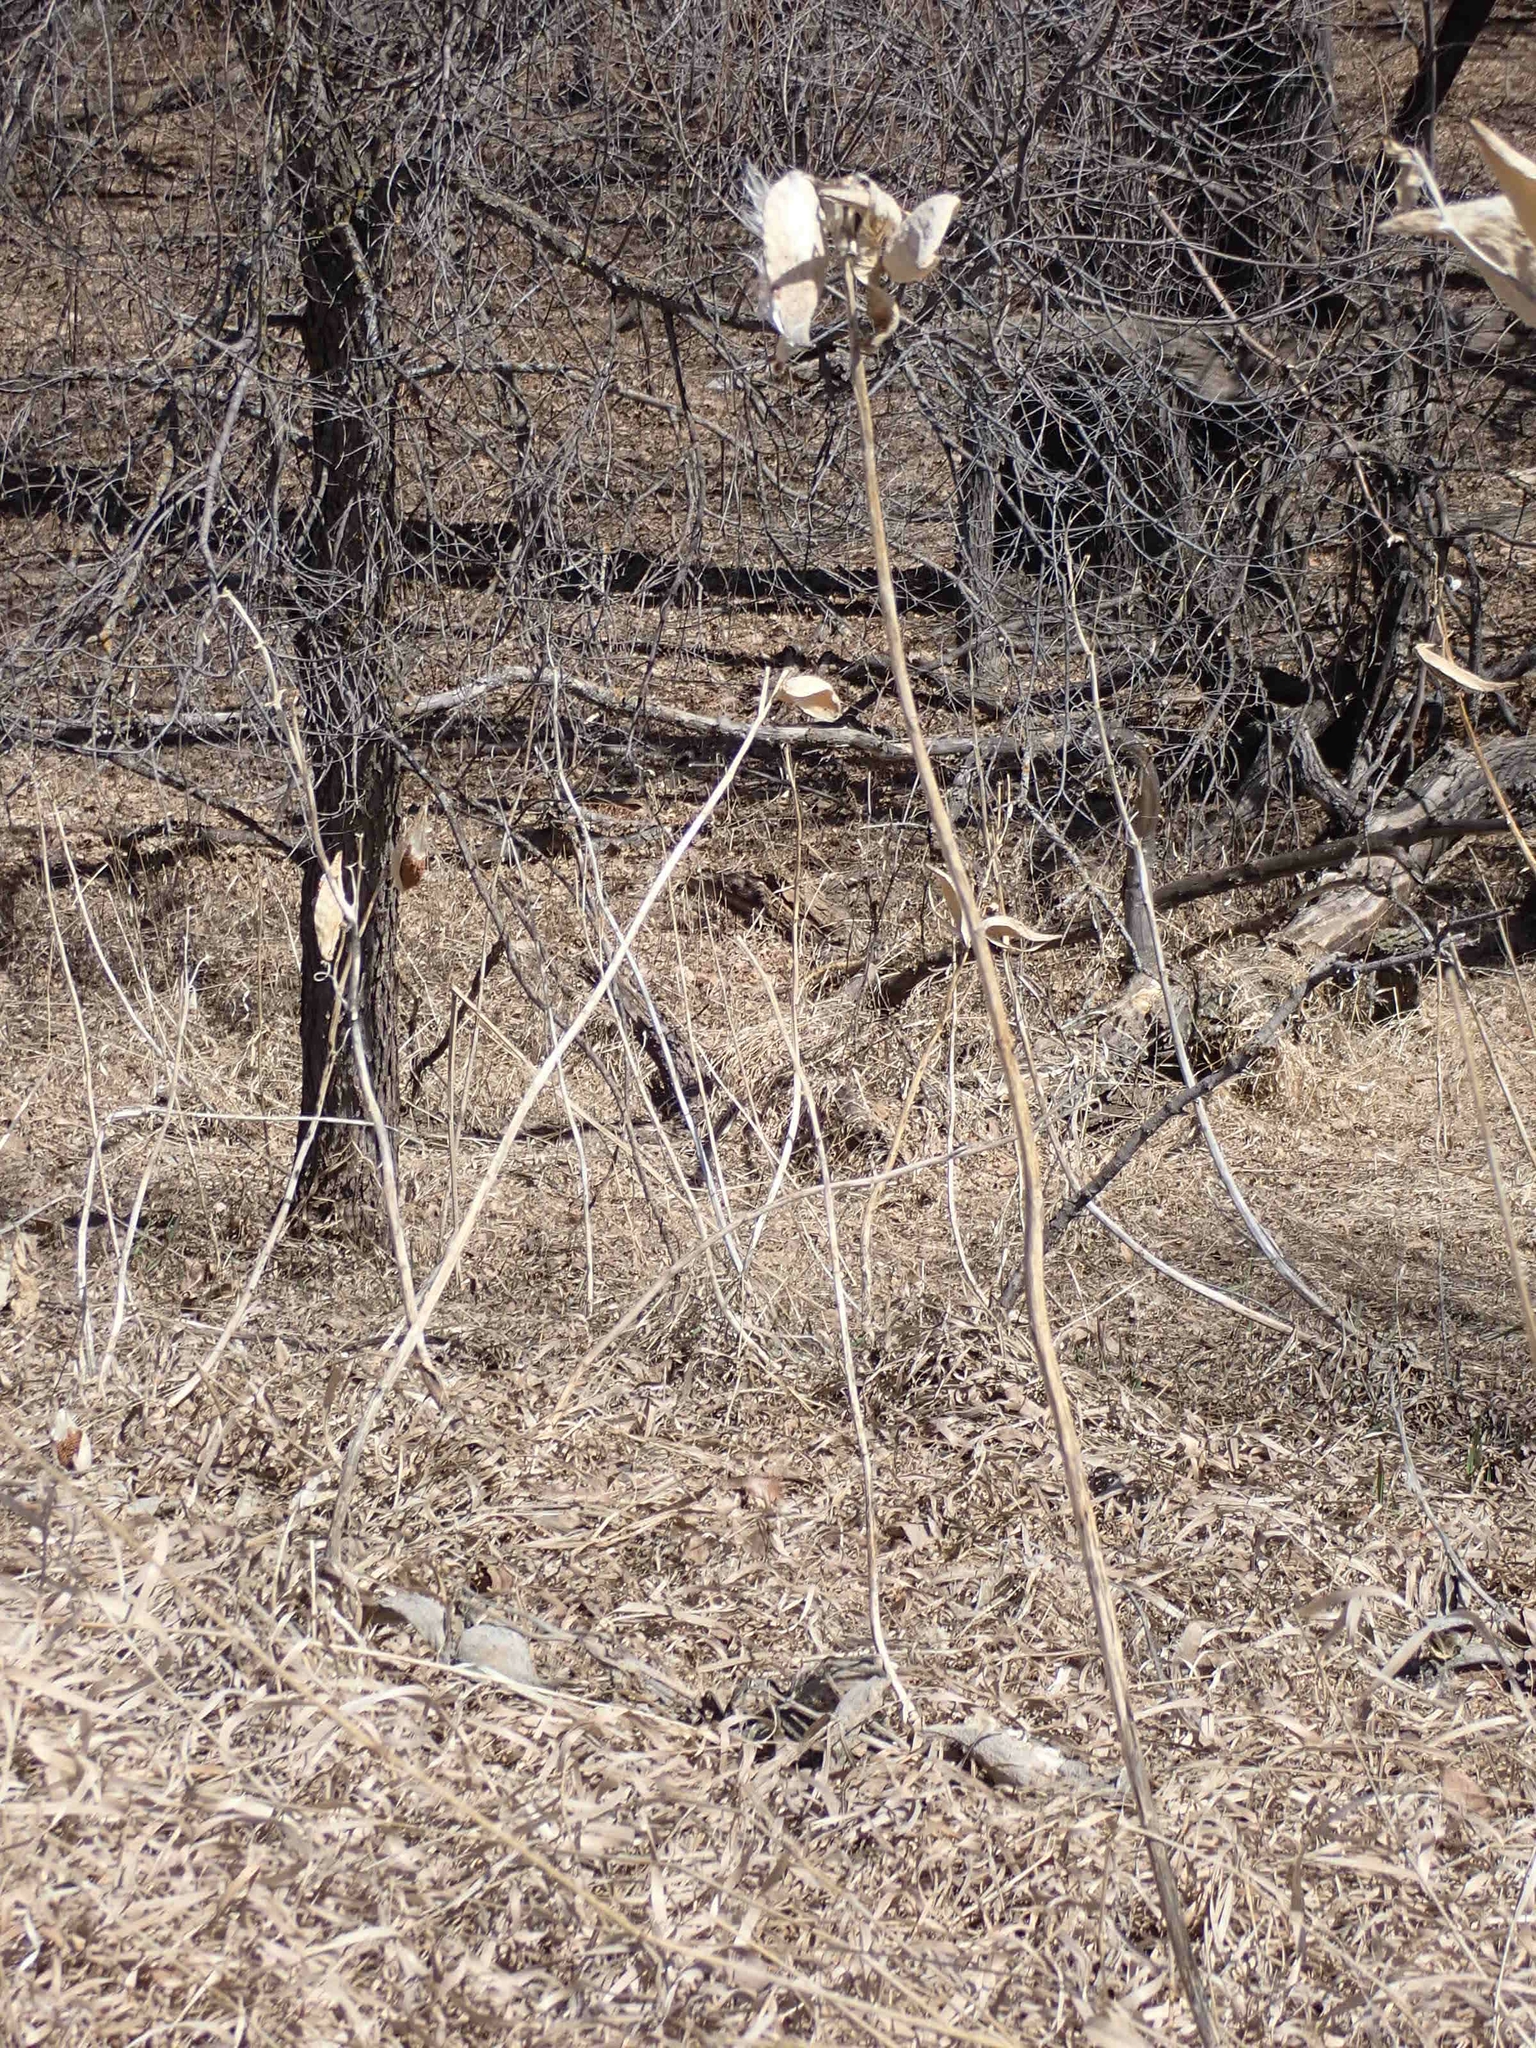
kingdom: Plantae
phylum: Tracheophyta
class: Magnoliopsida
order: Gentianales
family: Apocynaceae
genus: Asclepias
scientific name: Asclepias syriaca
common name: Common milkweed
